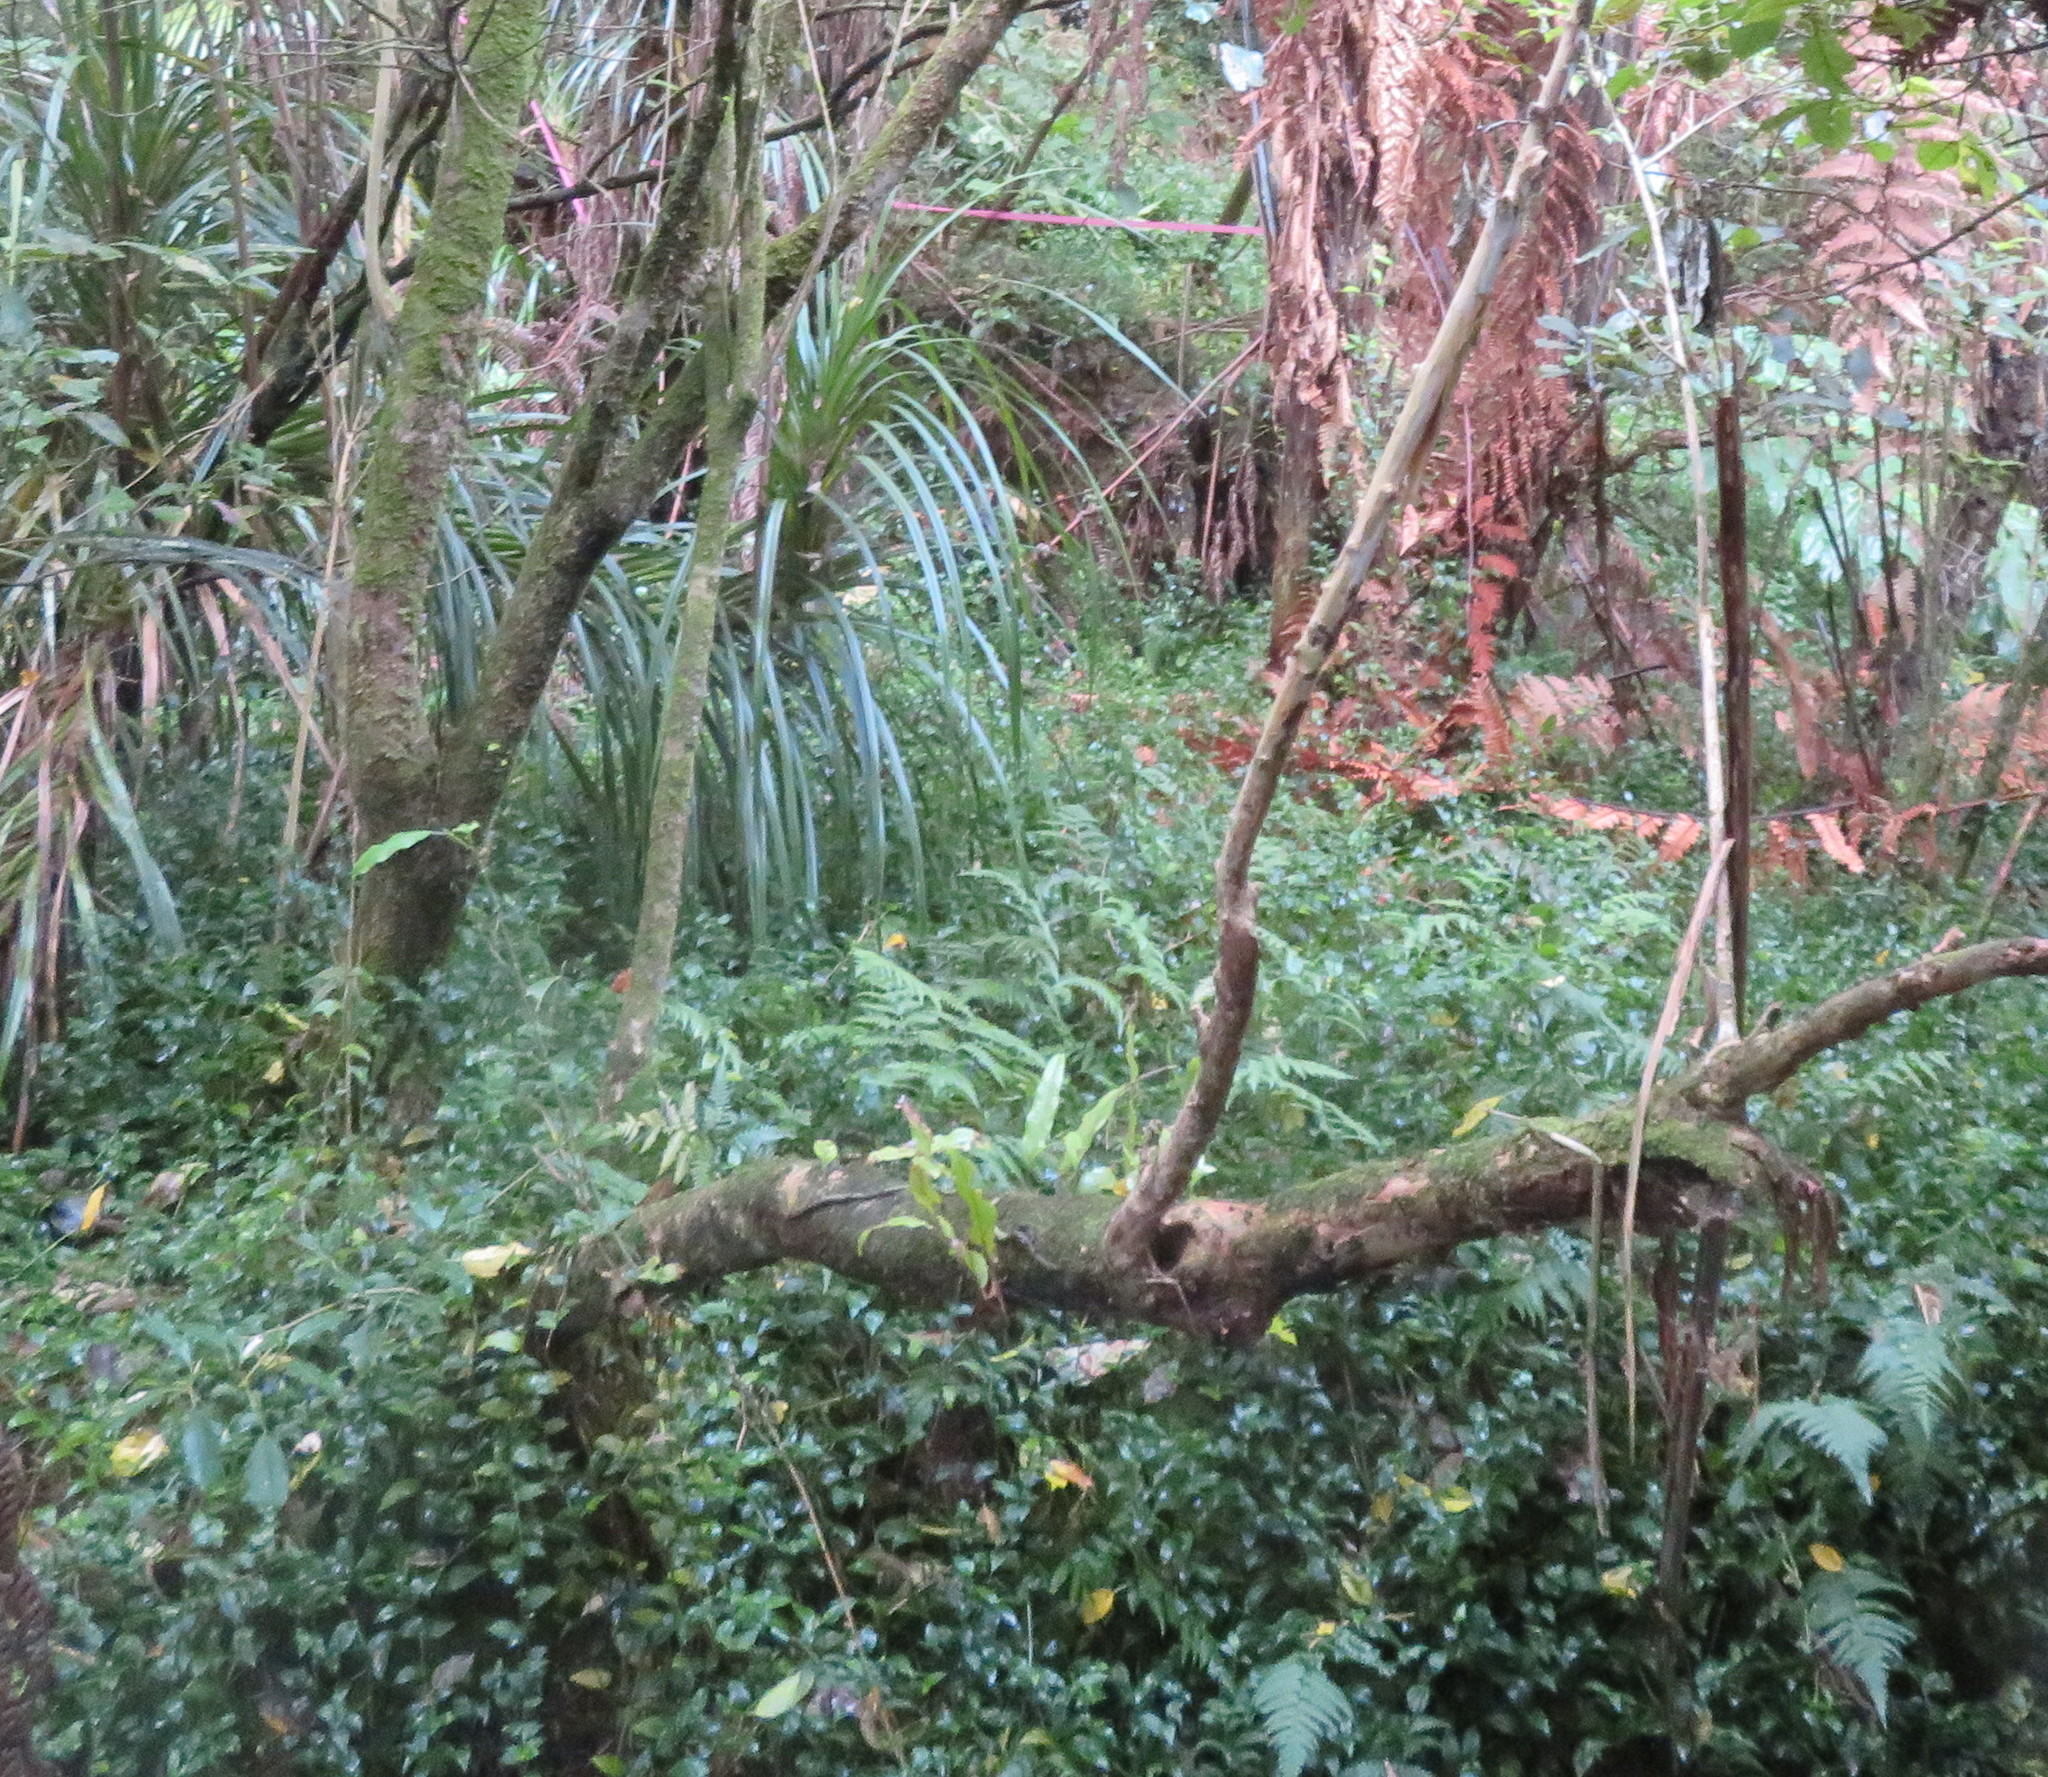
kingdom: Plantae
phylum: Tracheophyta
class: Polypodiopsida
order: Polypodiales
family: Polypodiaceae
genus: Lecanopteris
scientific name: Lecanopteris pustulata
